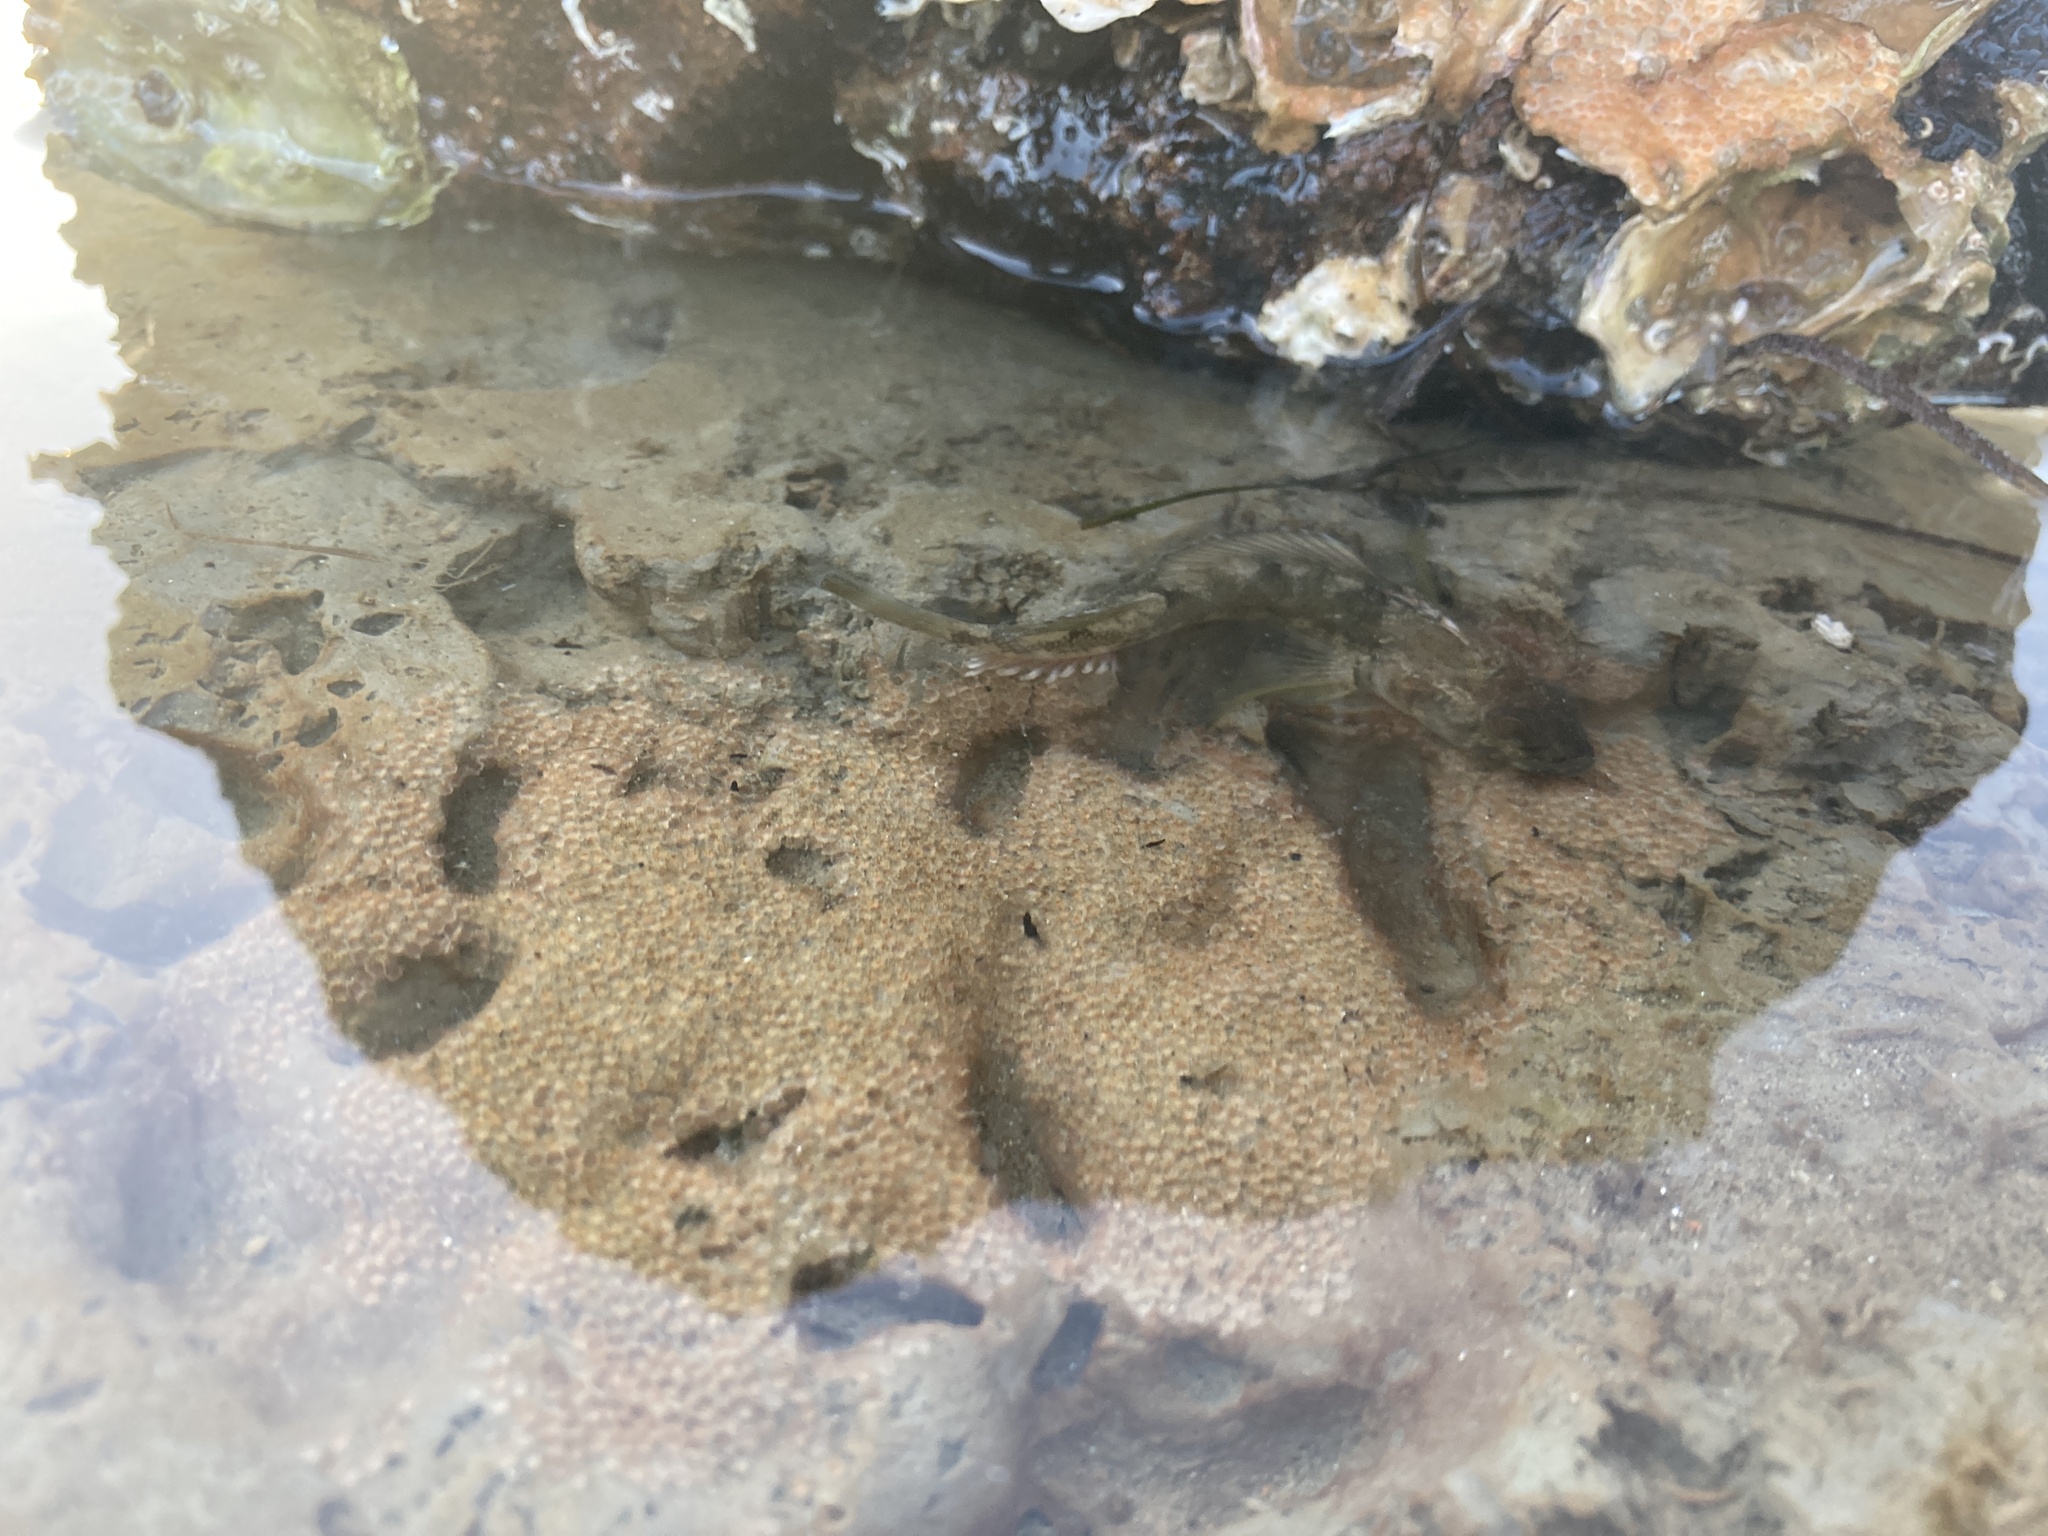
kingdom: Animalia
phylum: Chordata
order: Perciformes
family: Tripterygiidae
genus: Forsterygion
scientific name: Forsterygion capito
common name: Spotted robust triplefin
